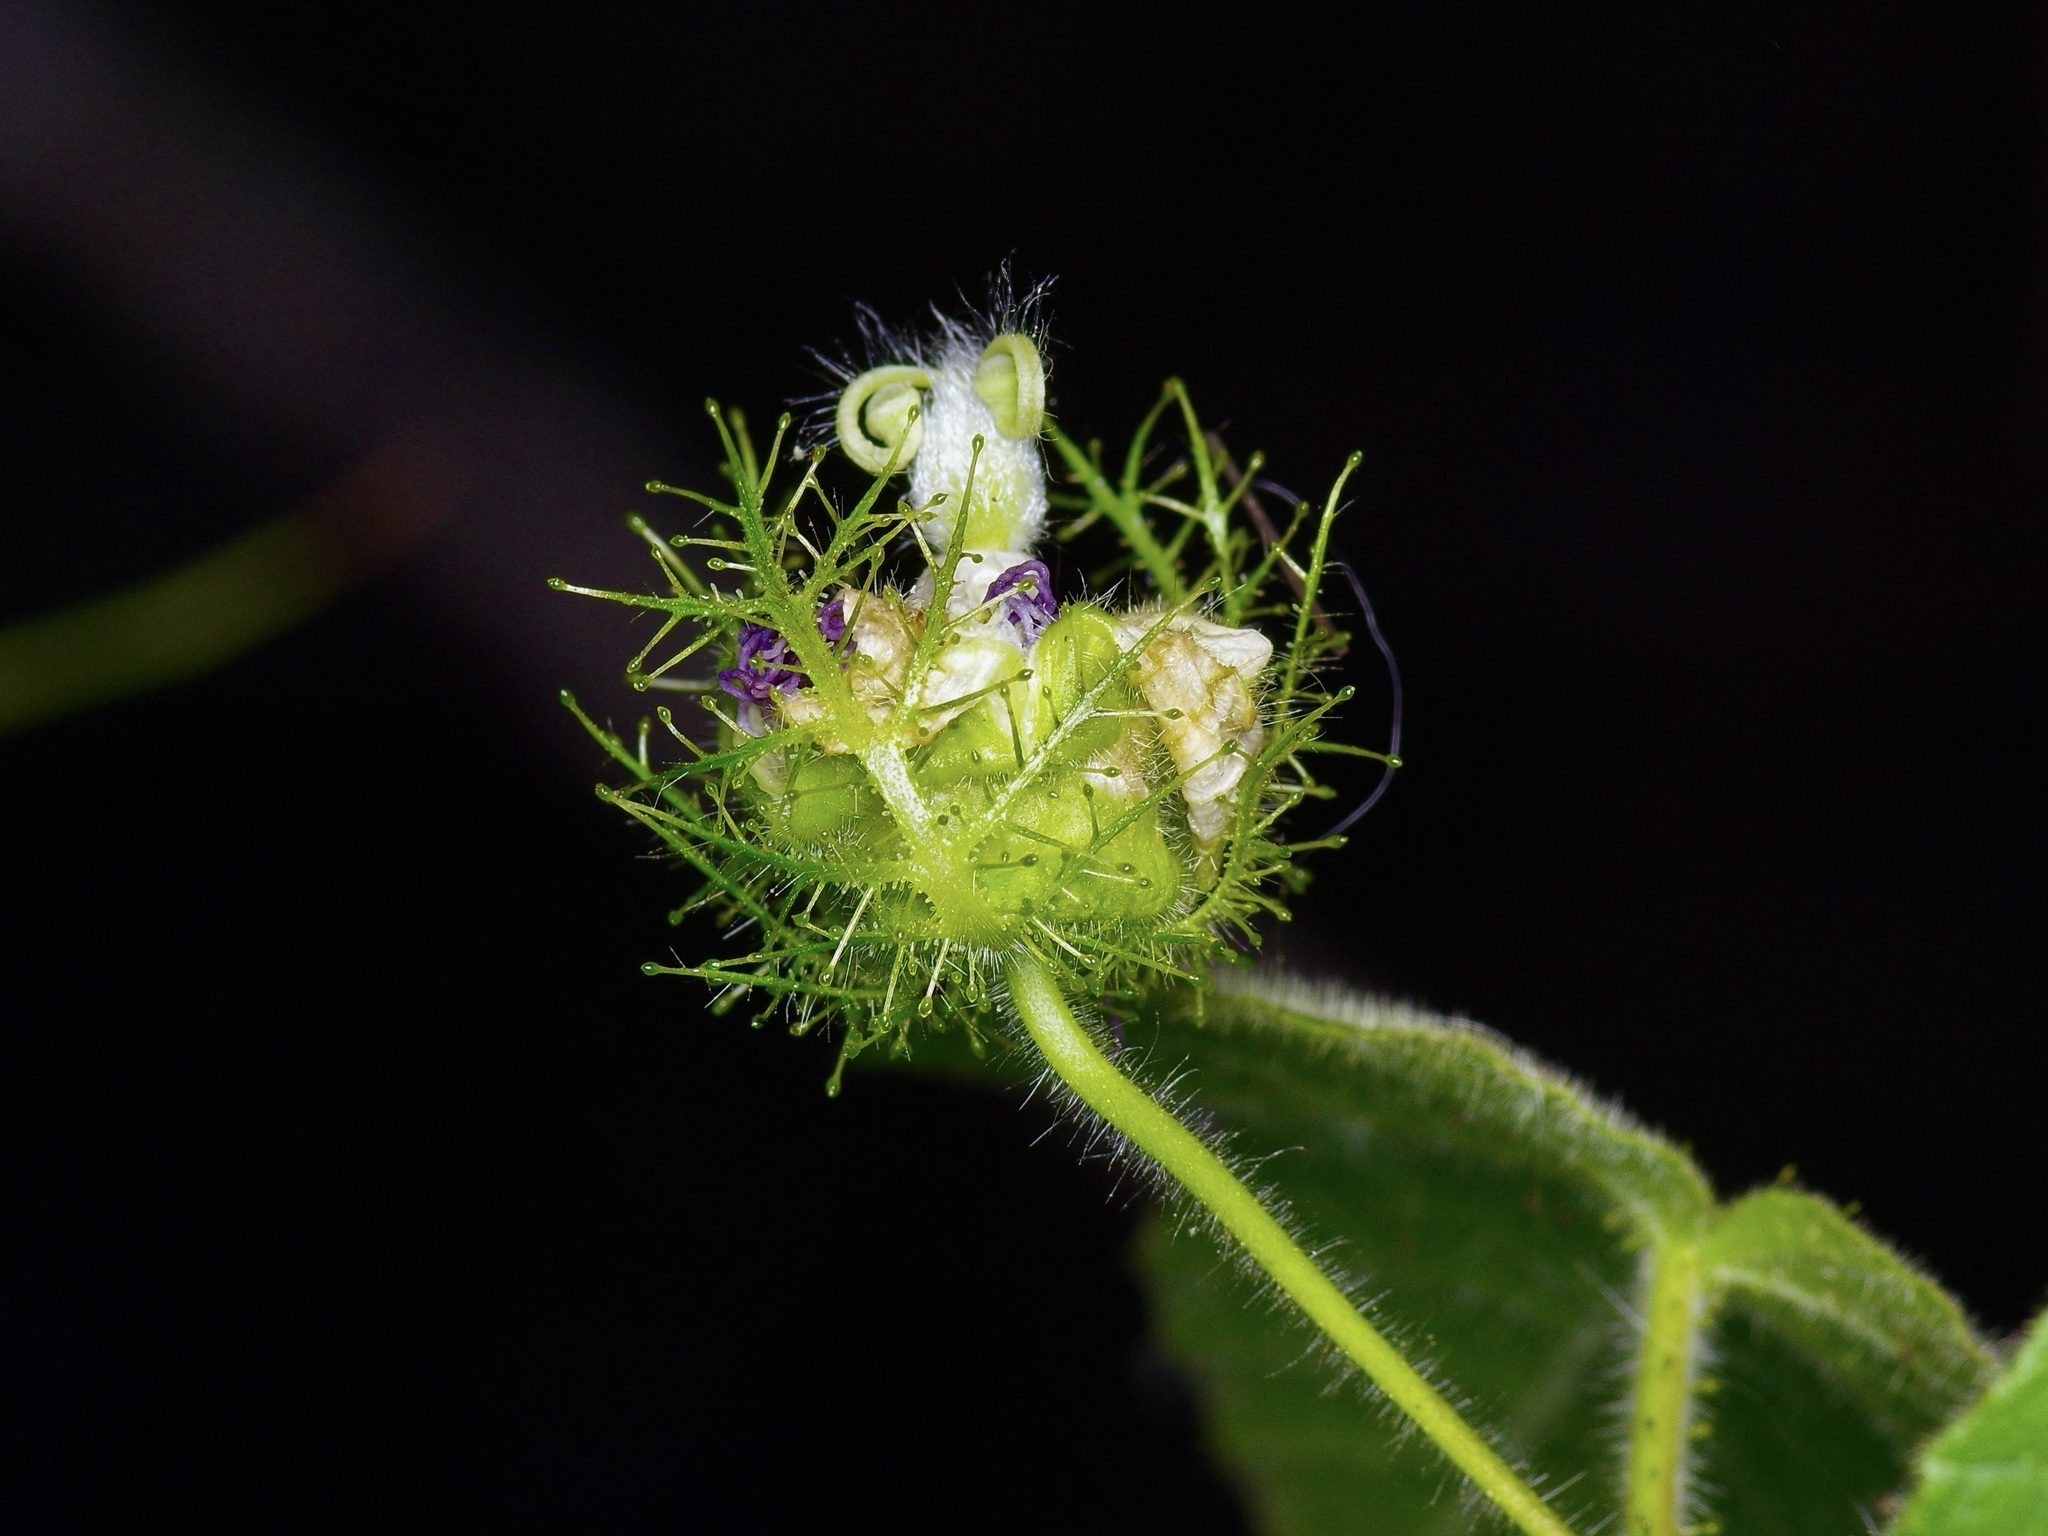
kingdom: Plantae
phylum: Tracheophyta
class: Magnoliopsida
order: Malpighiales
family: Passifloraceae
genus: Passiflora
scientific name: Passiflora foetida
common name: Fetid passionflower
